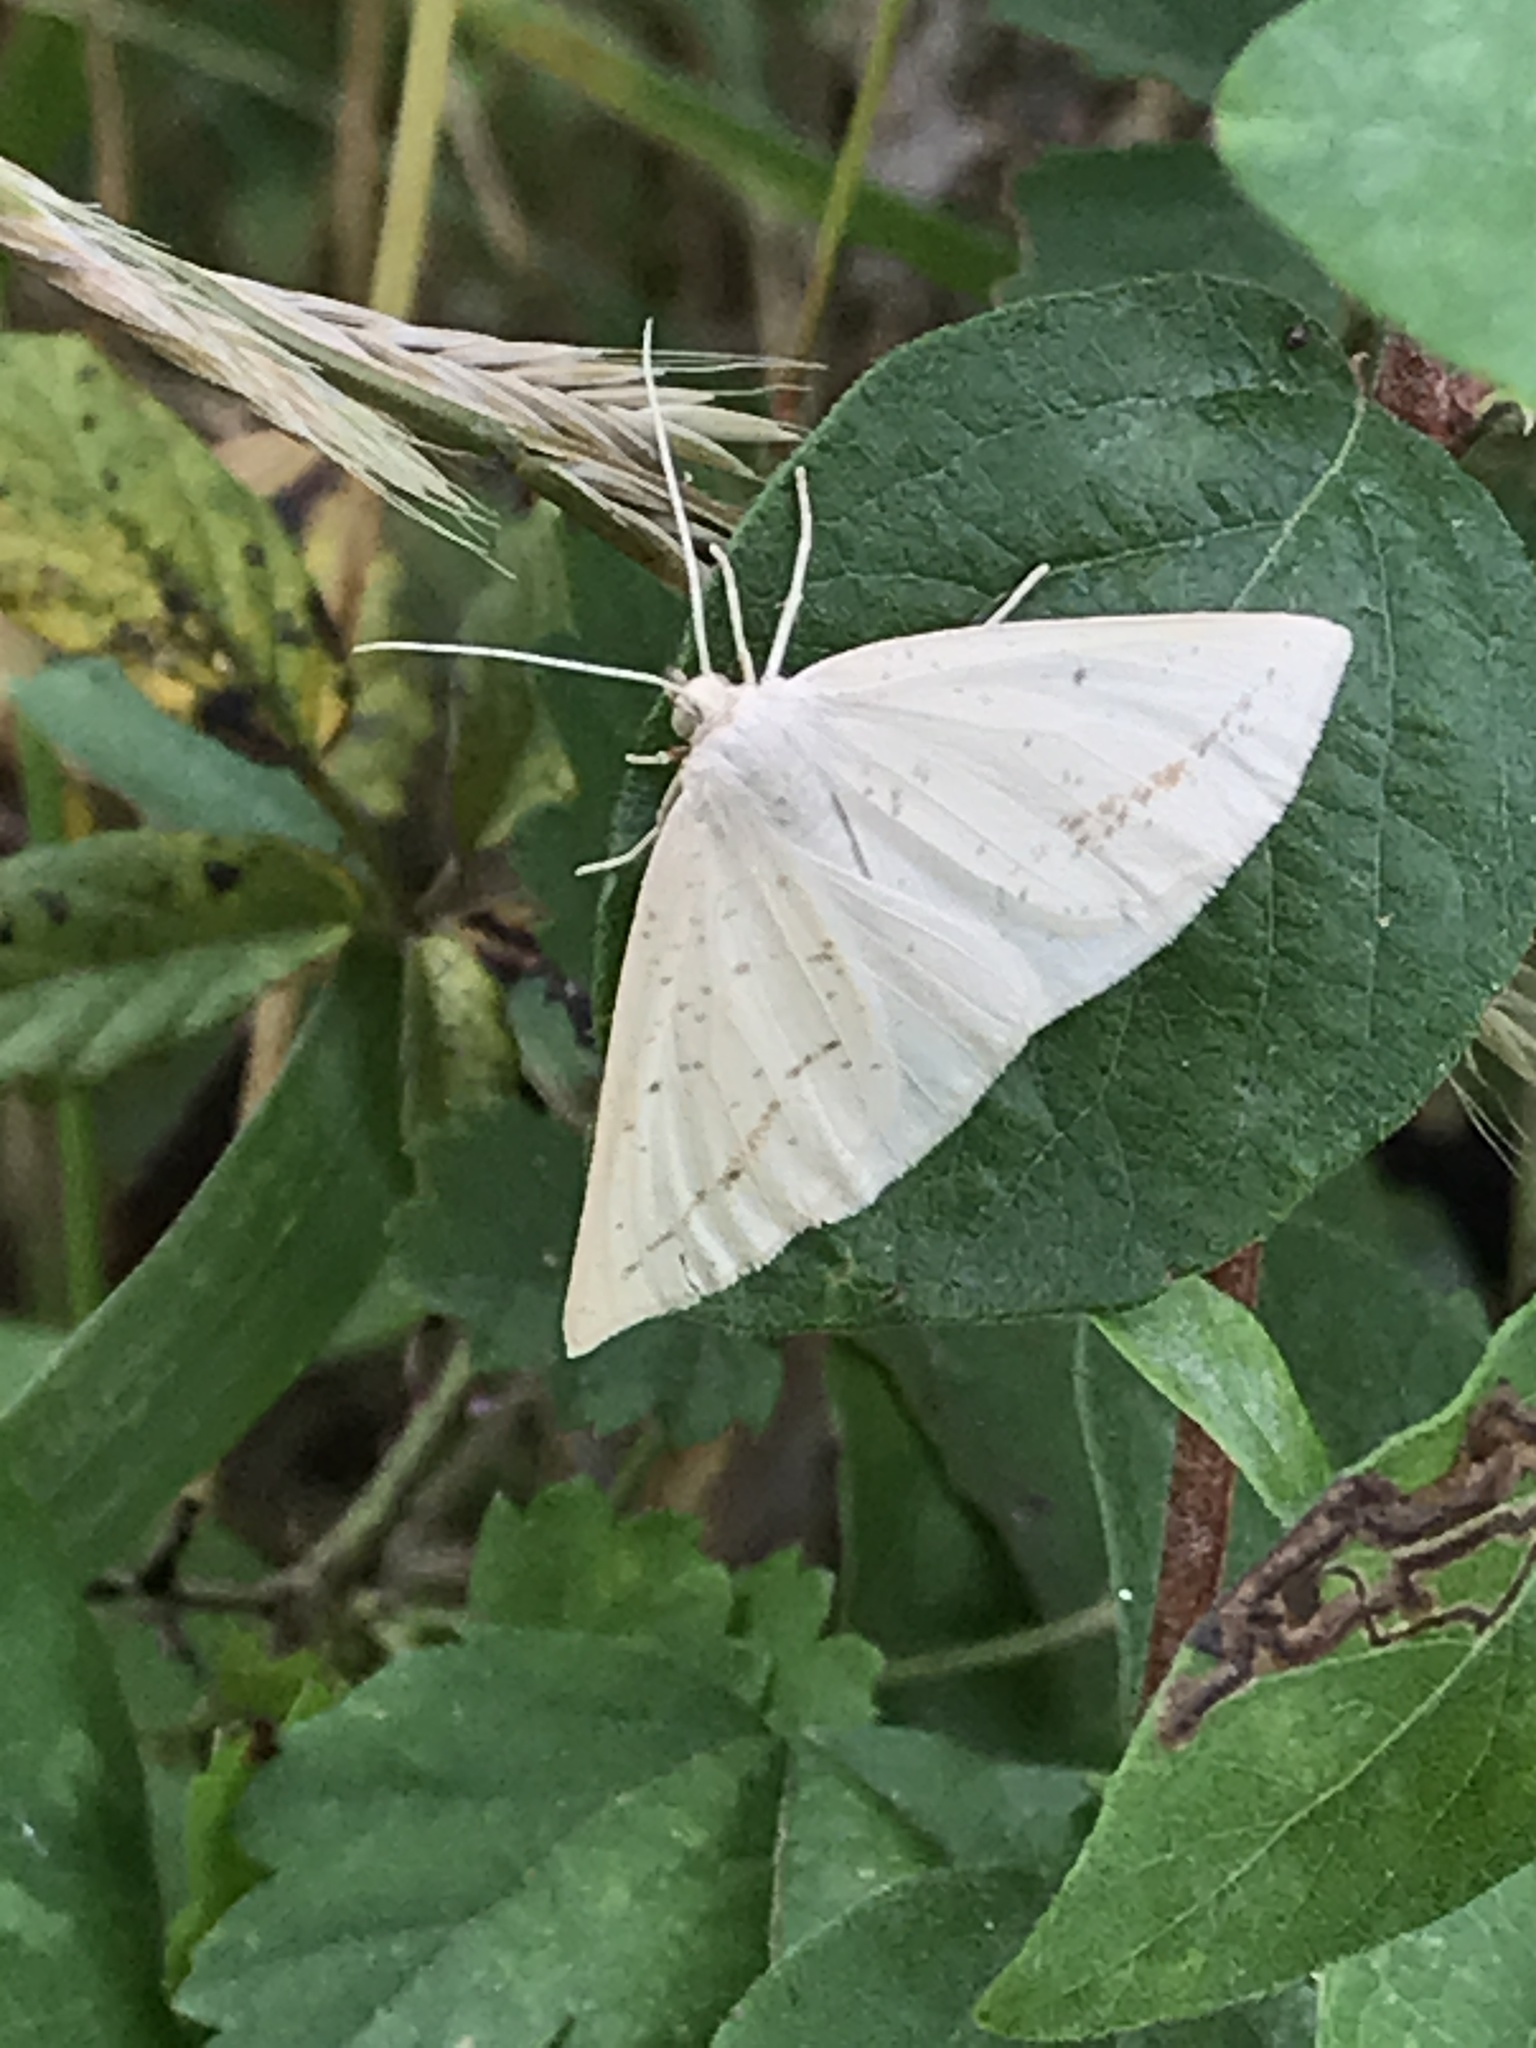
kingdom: Animalia
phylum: Arthropoda
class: Insecta
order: Lepidoptera
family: Geometridae
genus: Lychnosea
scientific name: Lychnosea intermicata
